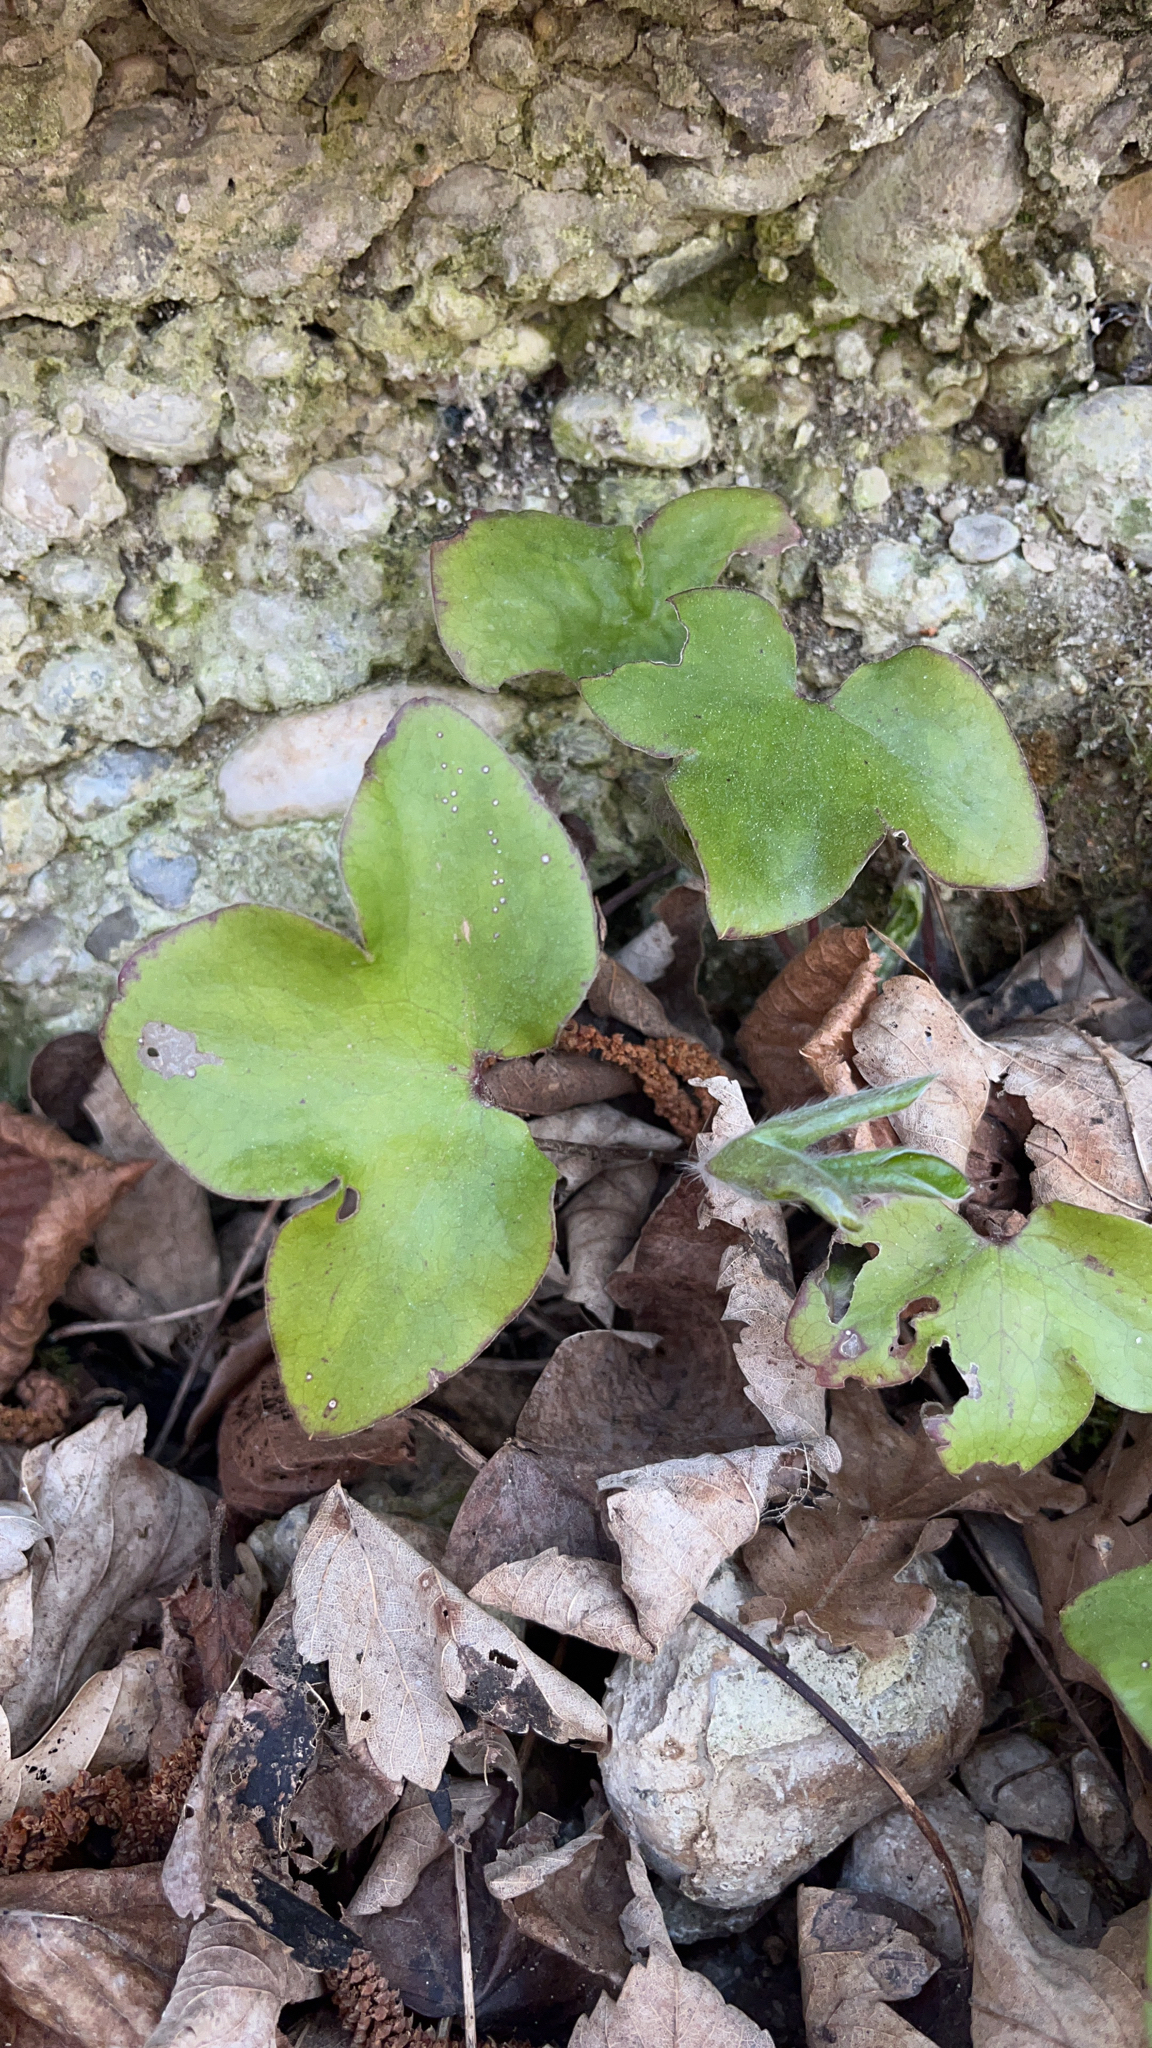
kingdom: Plantae
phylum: Tracheophyta
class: Magnoliopsida
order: Ranunculales
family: Ranunculaceae
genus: Hepatica
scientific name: Hepatica nobilis
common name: Liverleaf
